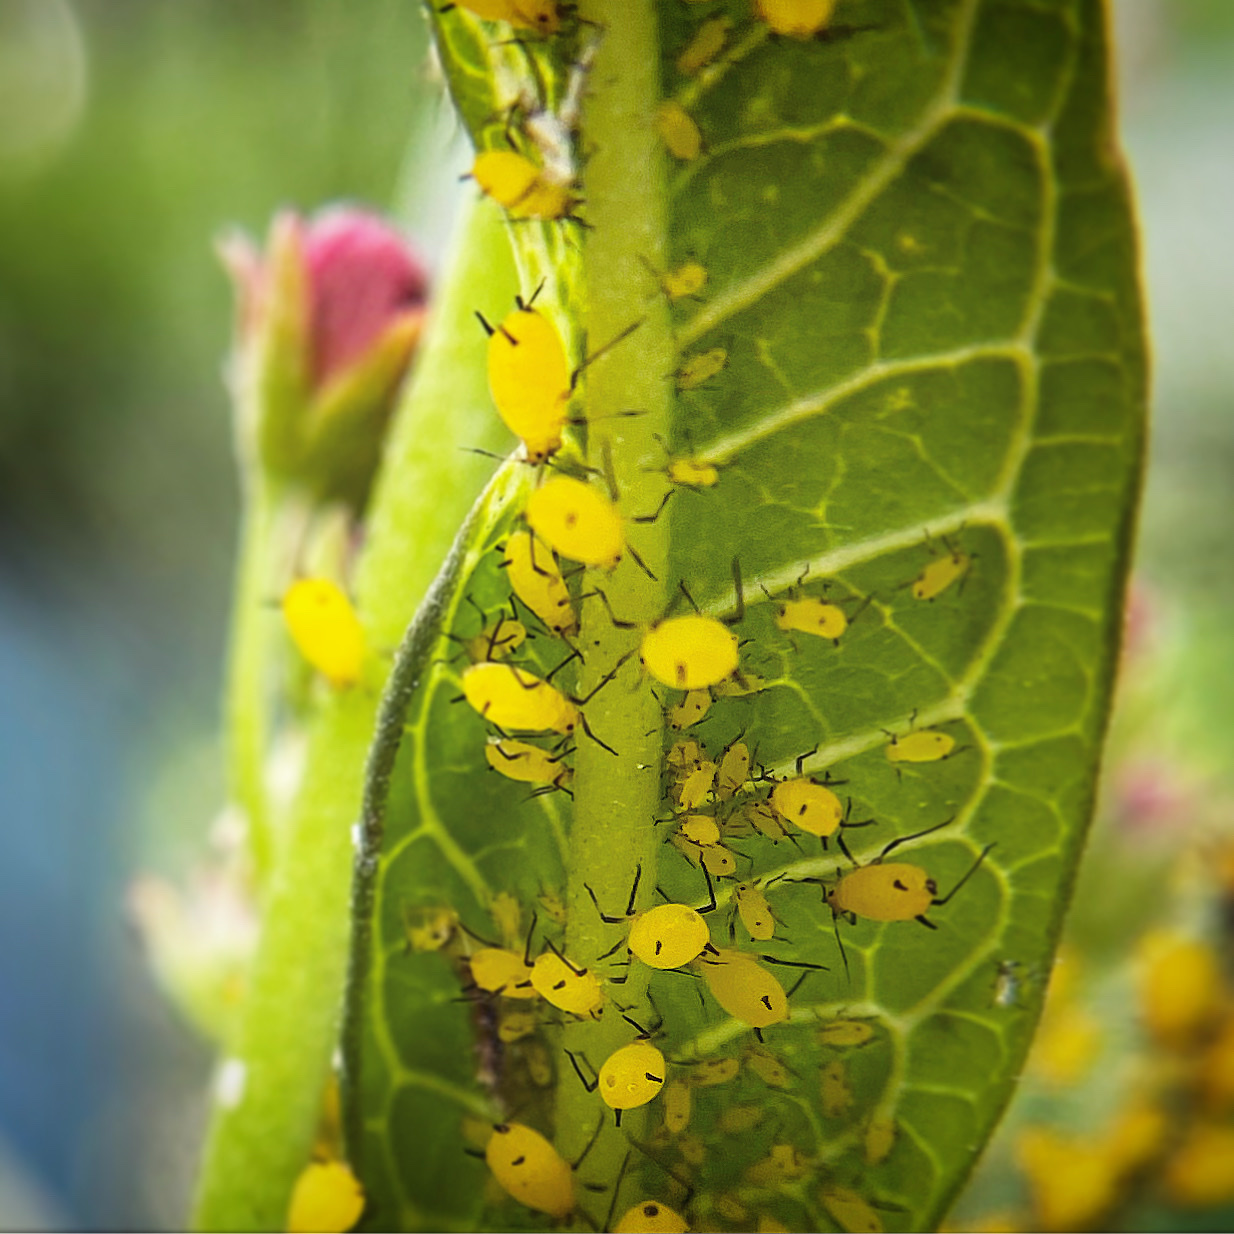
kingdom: Animalia
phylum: Arthropoda
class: Insecta
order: Hemiptera
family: Aphididae
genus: Aphis
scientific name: Aphis nerii
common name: Oleander aphid
